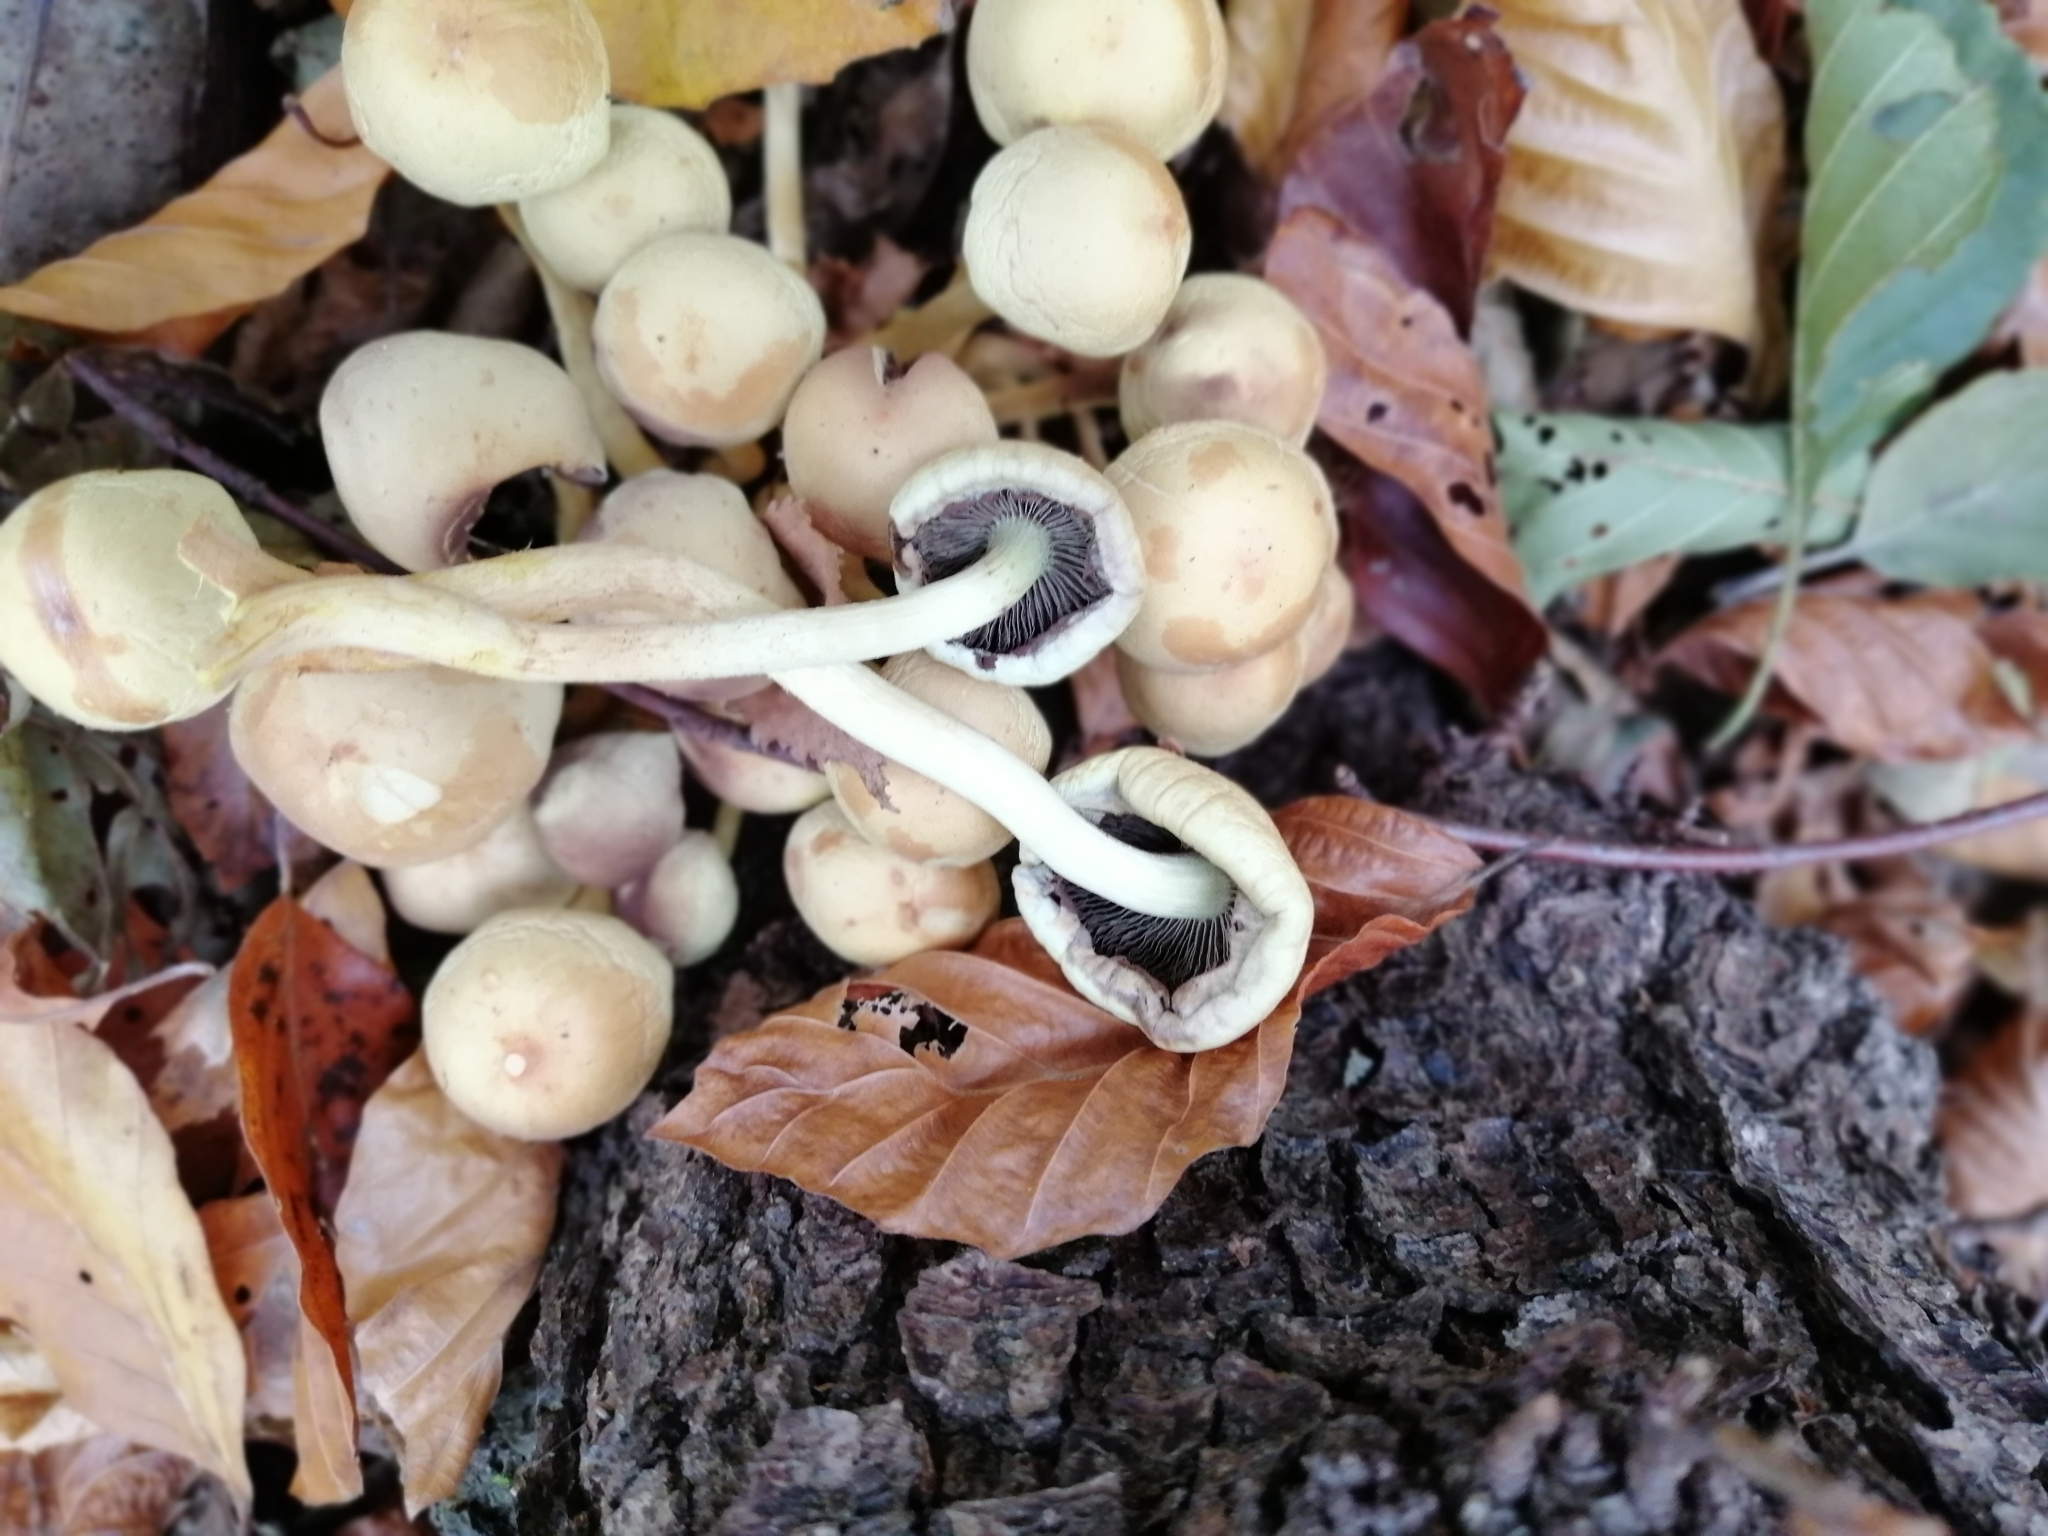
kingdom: Fungi
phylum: Basidiomycota
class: Agaricomycetes
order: Agaricales
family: Strophariaceae
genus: Hypholoma
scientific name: Hypholoma fasciculare
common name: Sulphur tuft
